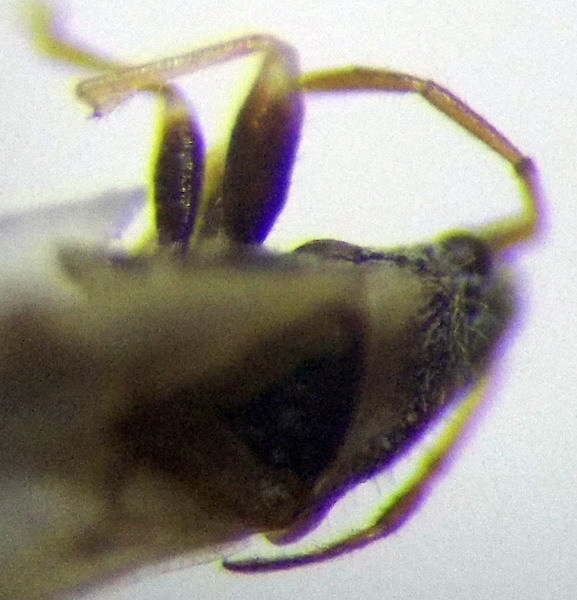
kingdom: Animalia
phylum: Arthropoda
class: Insecta
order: Hemiptera
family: Oxycarenidae
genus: Leptodemus
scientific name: Leptodemus minutus
